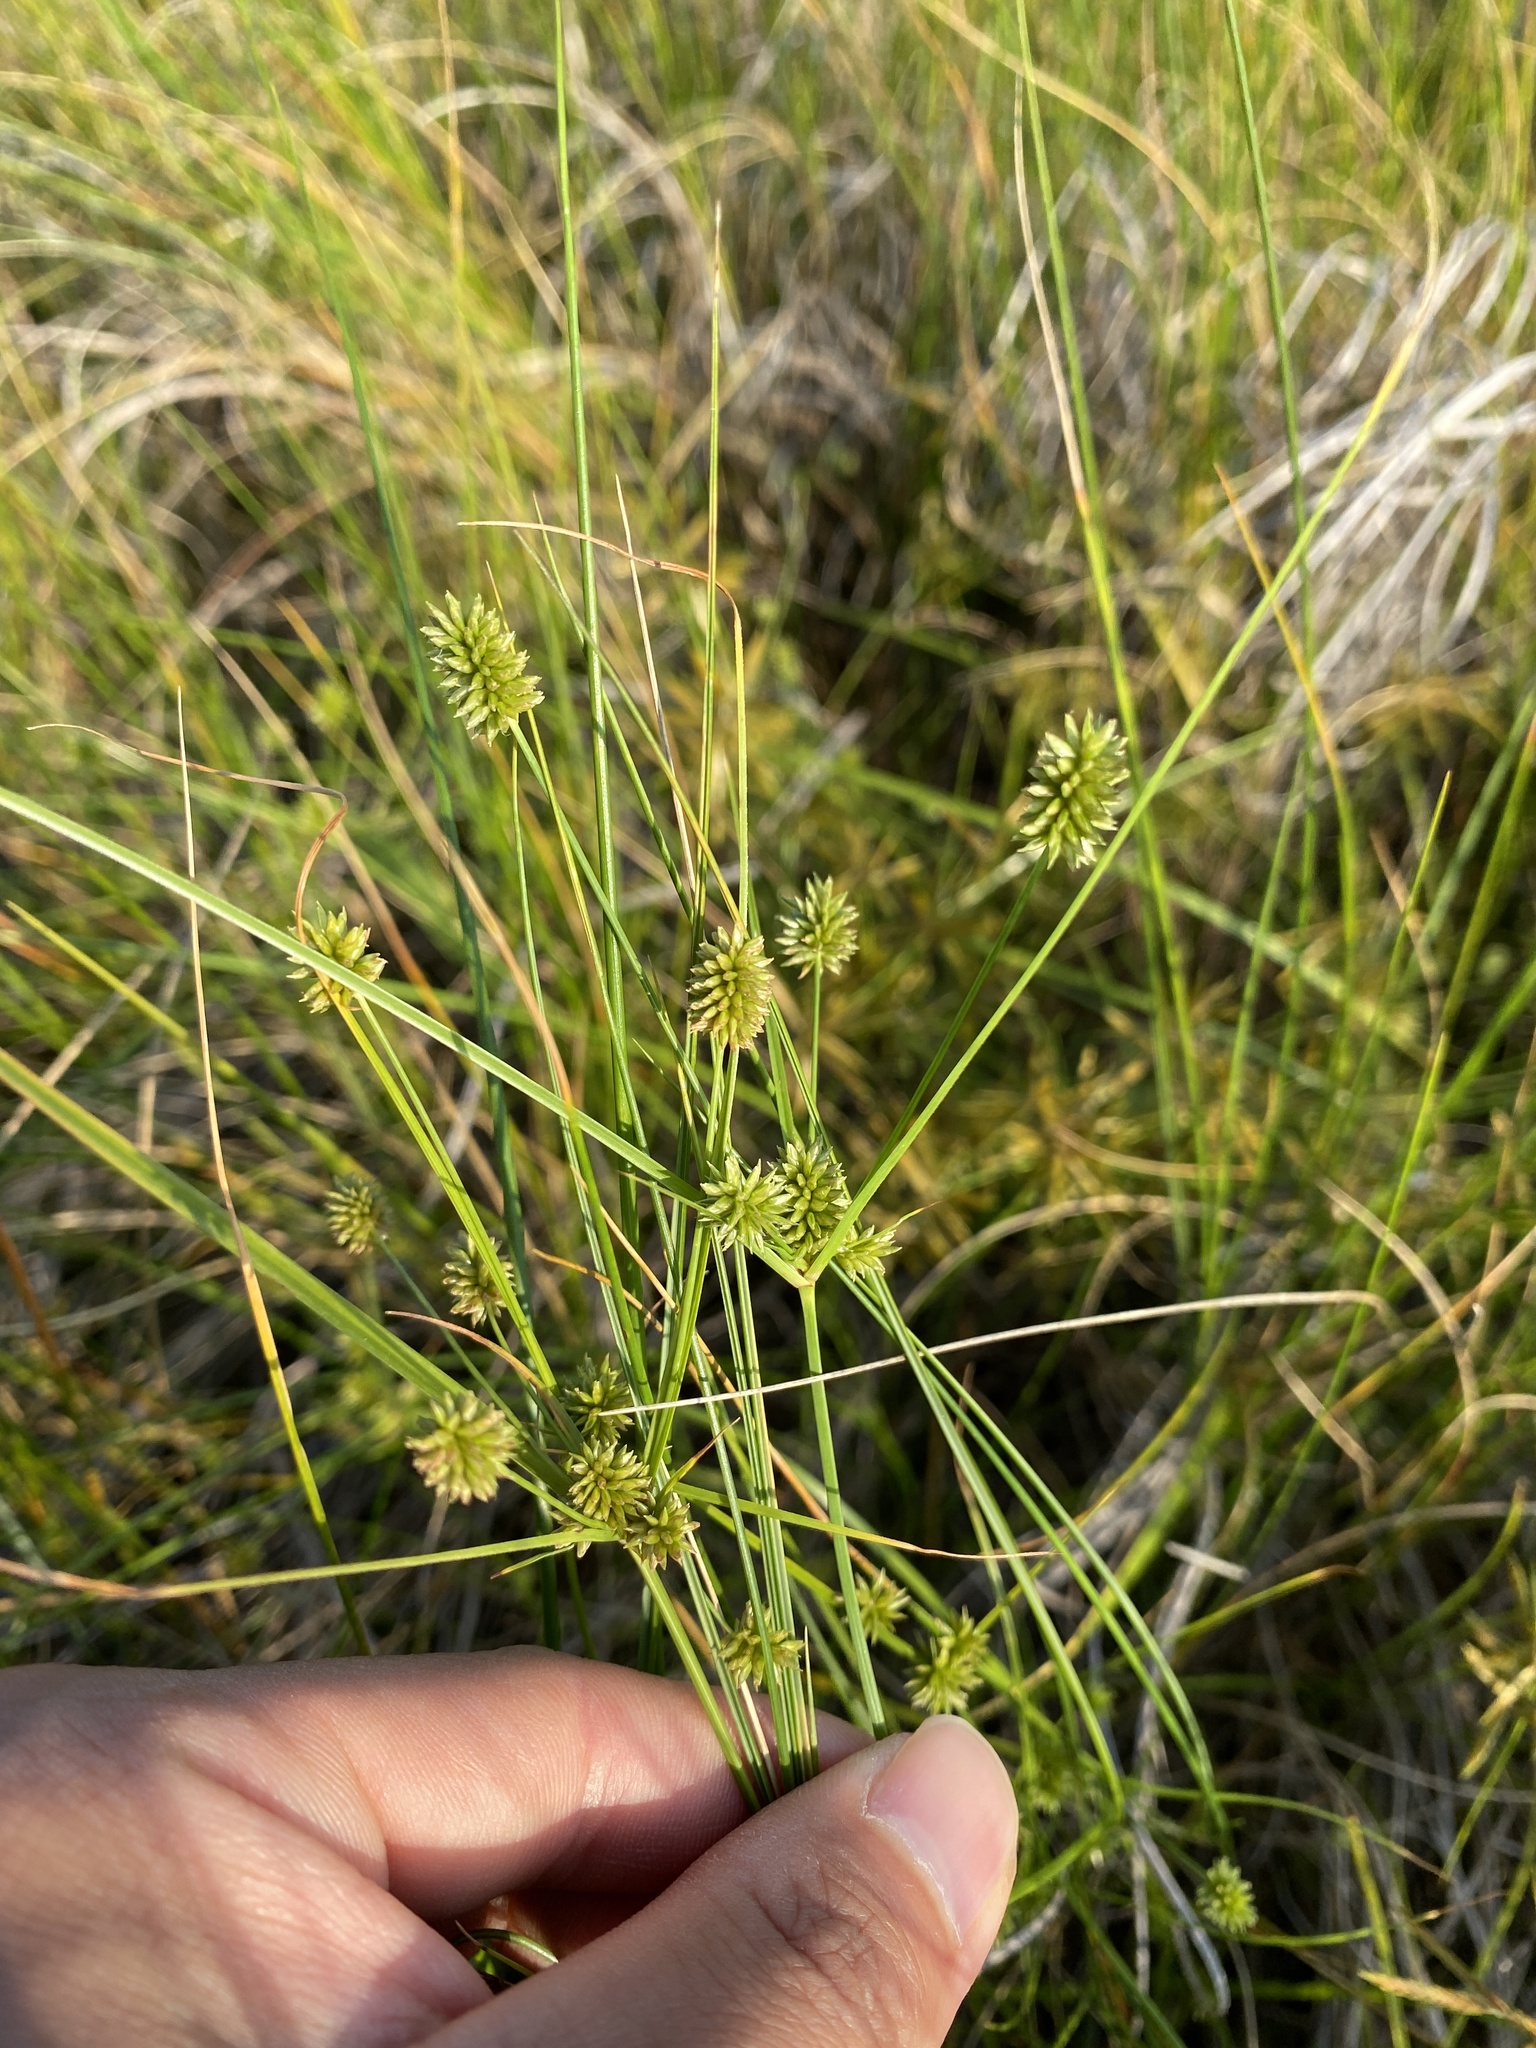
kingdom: Plantae
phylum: Tracheophyta
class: Liliopsida
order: Poales
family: Cyperaceae
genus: Cyperus
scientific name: Cyperus retrorsus
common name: Pinebarren flat sedge
